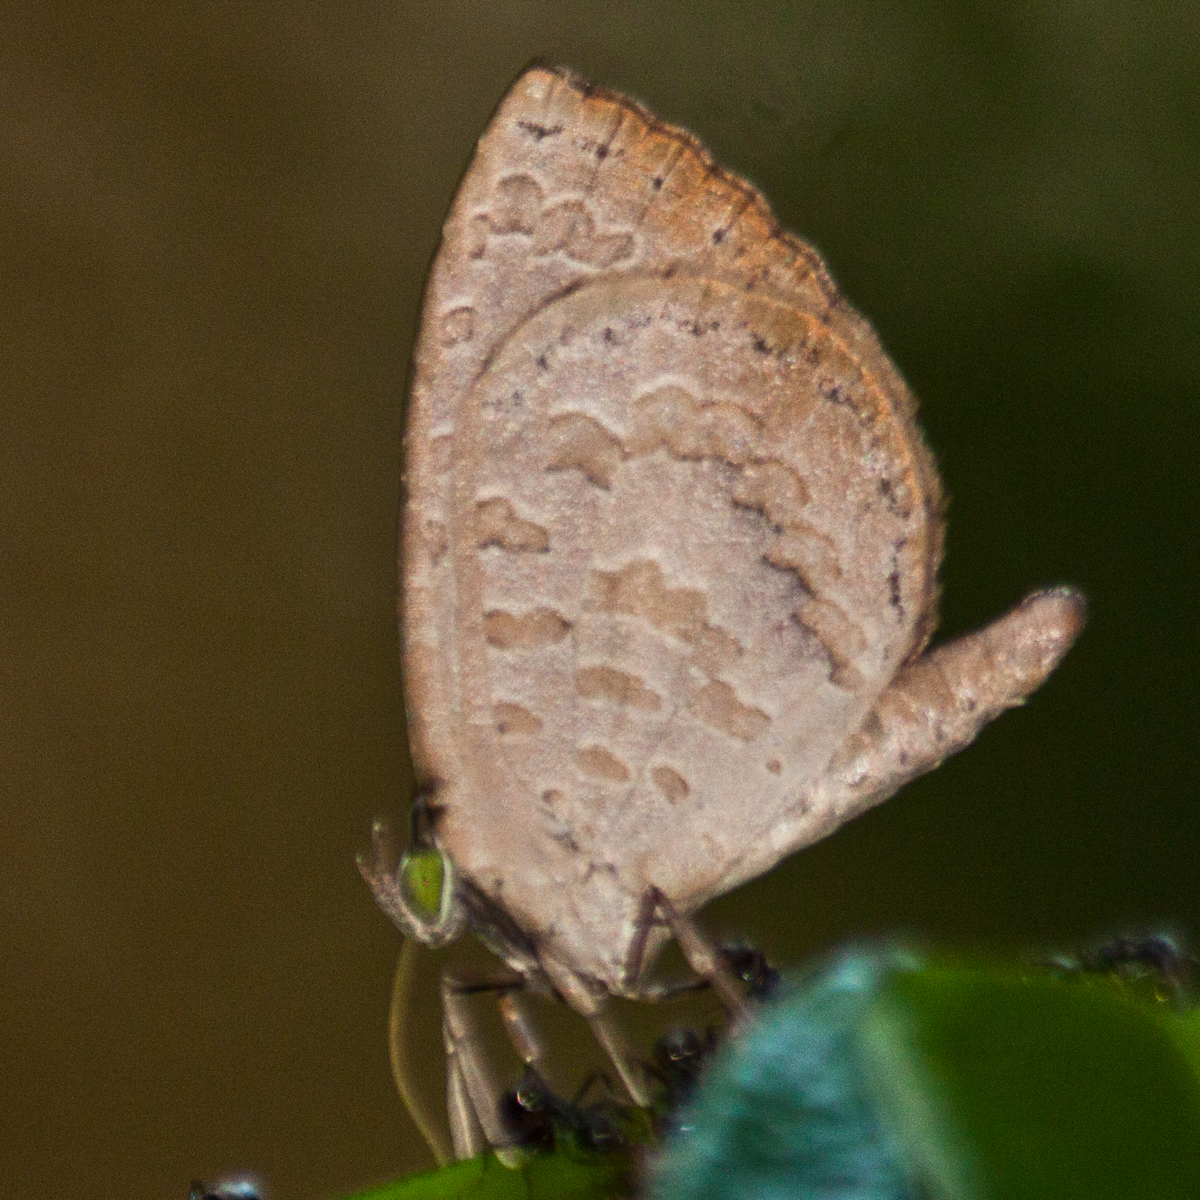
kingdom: Animalia
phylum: Arthropoda
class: Insecta
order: Lepidoptera
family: Lycaenidae
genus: Miletus
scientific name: Miletus chinensis
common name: Common brownie
